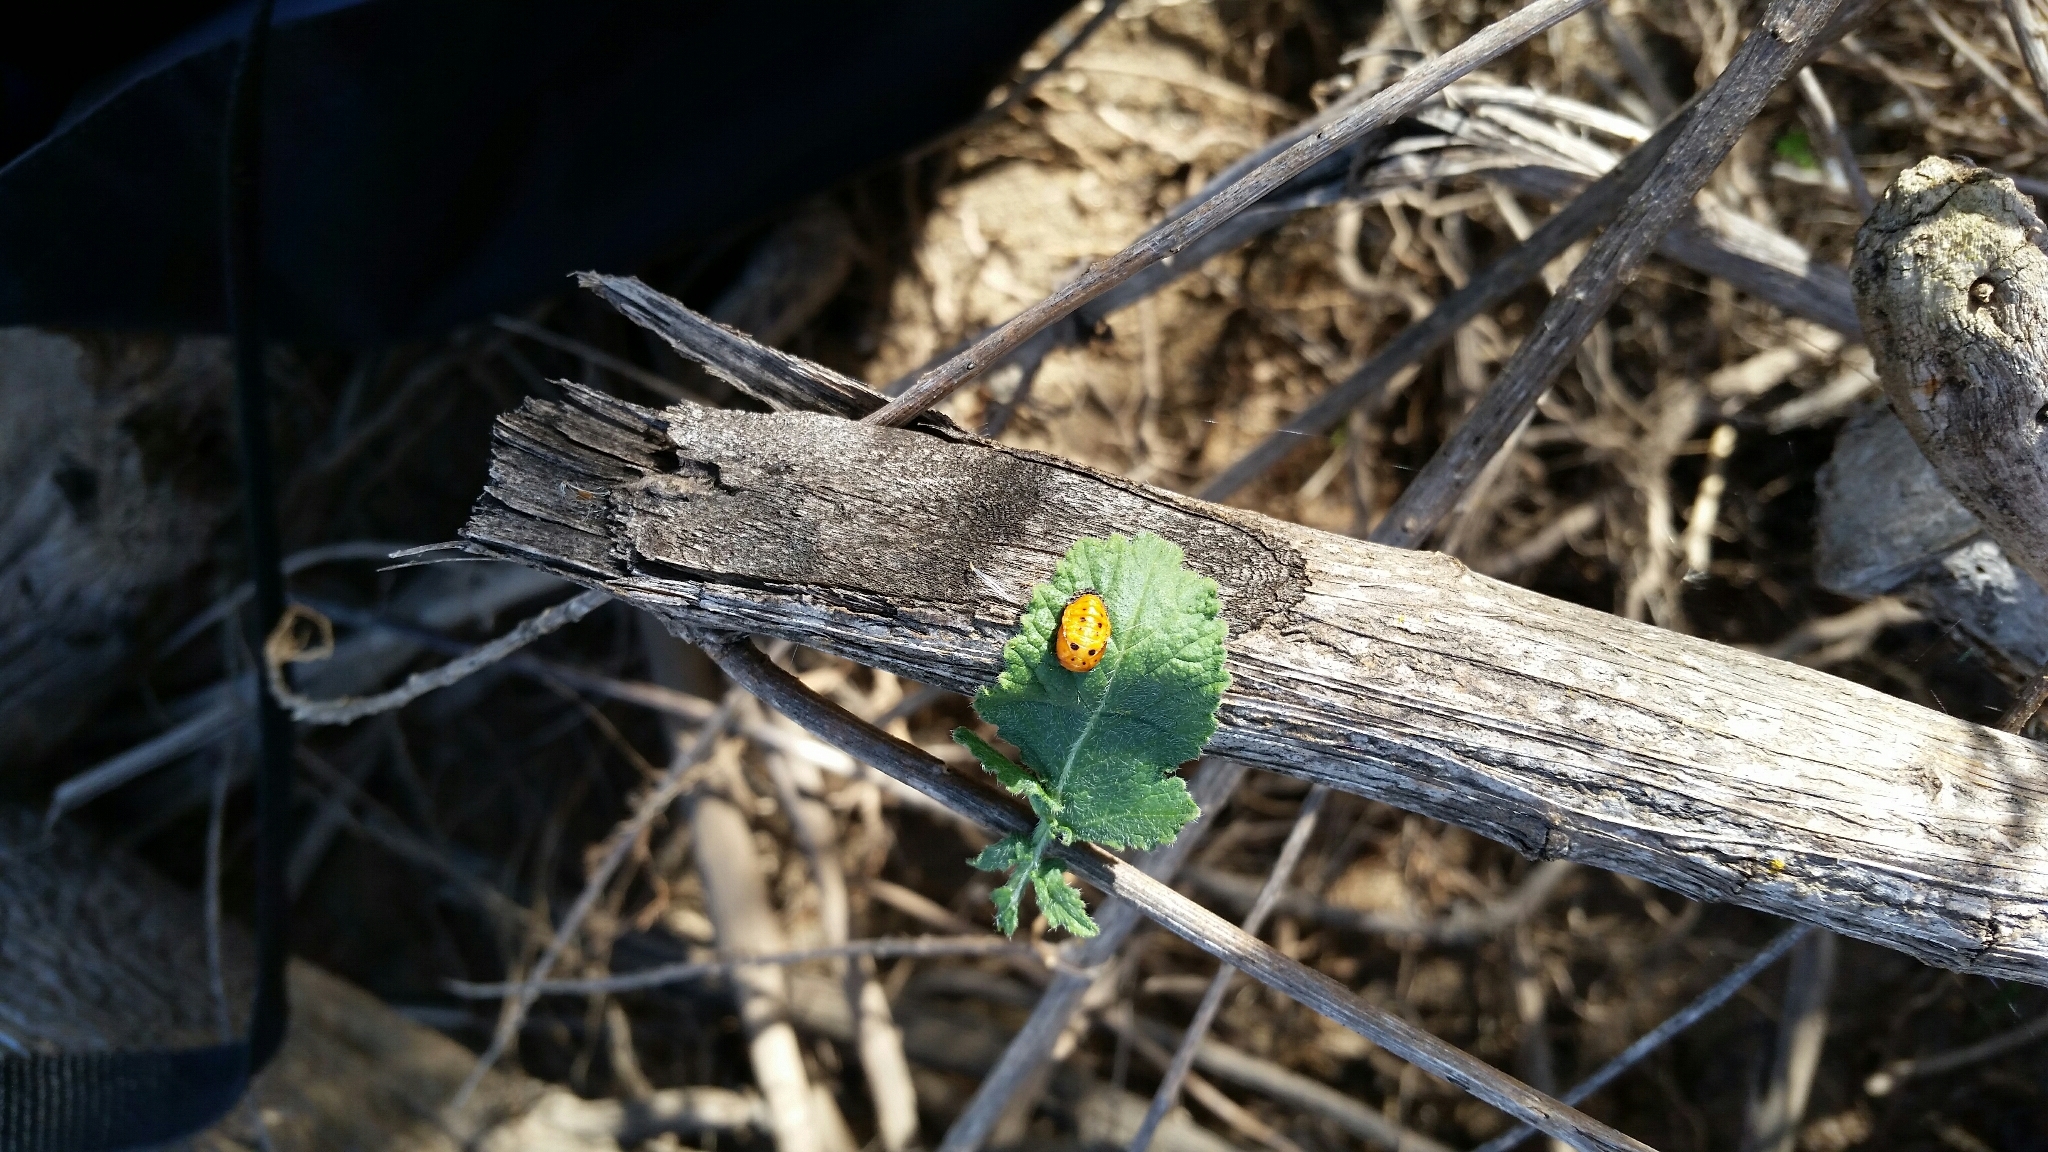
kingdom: Animalia
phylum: Arthropoda
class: Insecta
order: Coleoptera
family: Coccinellidae
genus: Hippodamia
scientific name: Hippodamia convergens
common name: Convergent lady beetle
